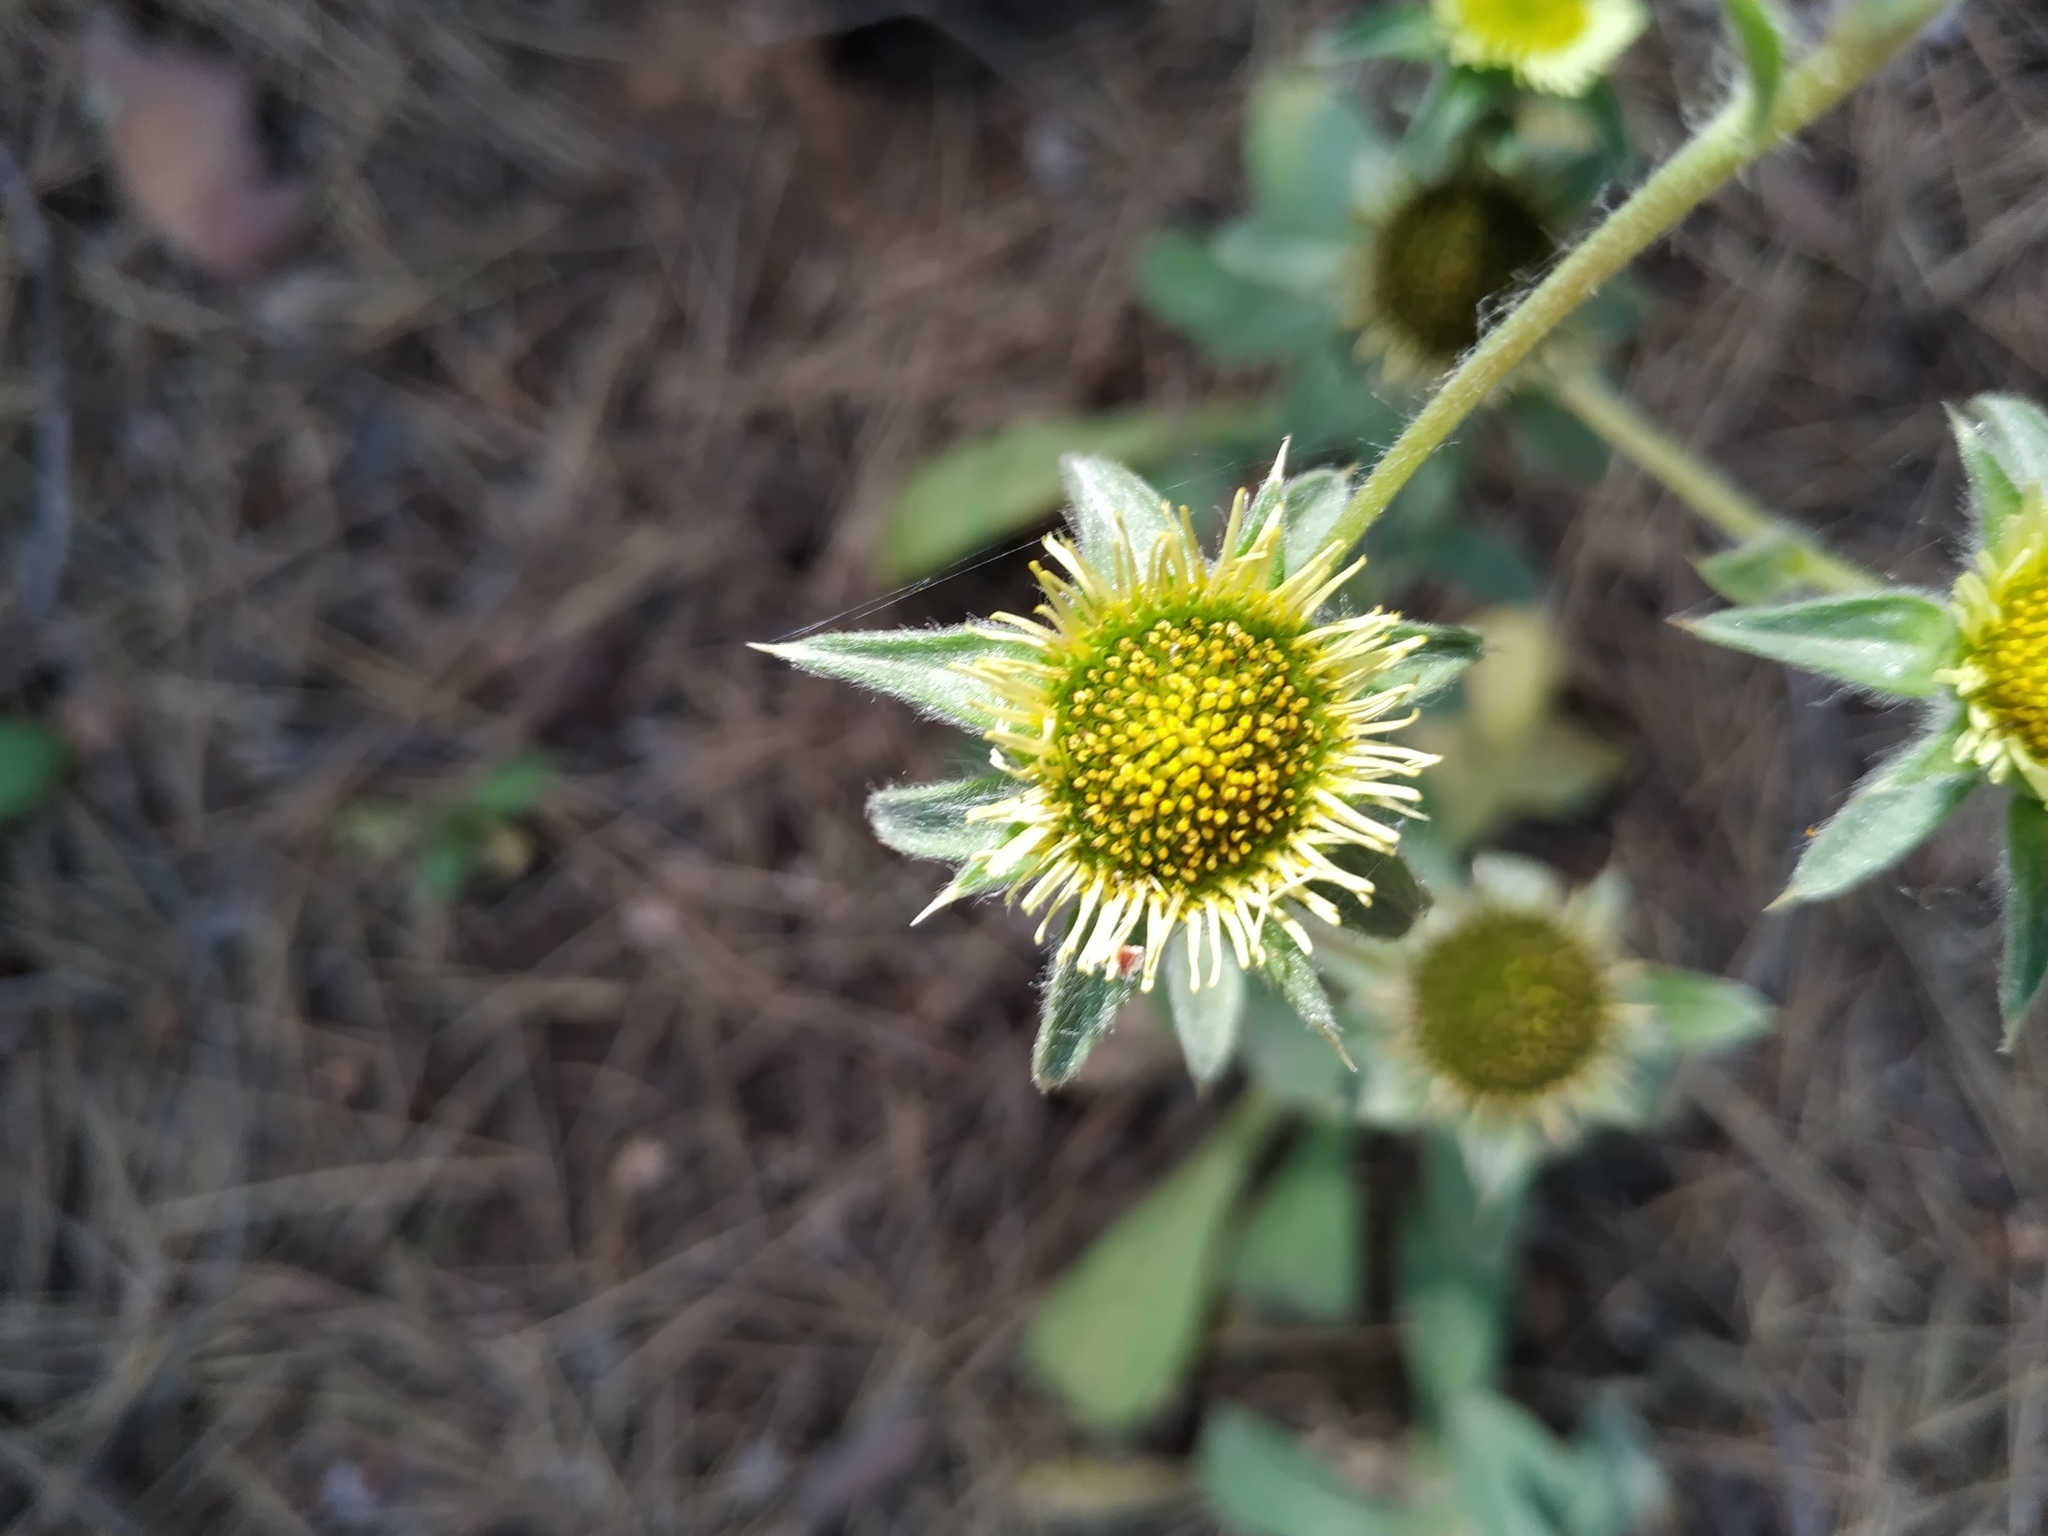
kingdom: Plantae
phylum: Tracheophyta
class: Magnoliopsida
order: Asterales
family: Asteraceae
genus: Pallenis
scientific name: Pallenis spinosa
